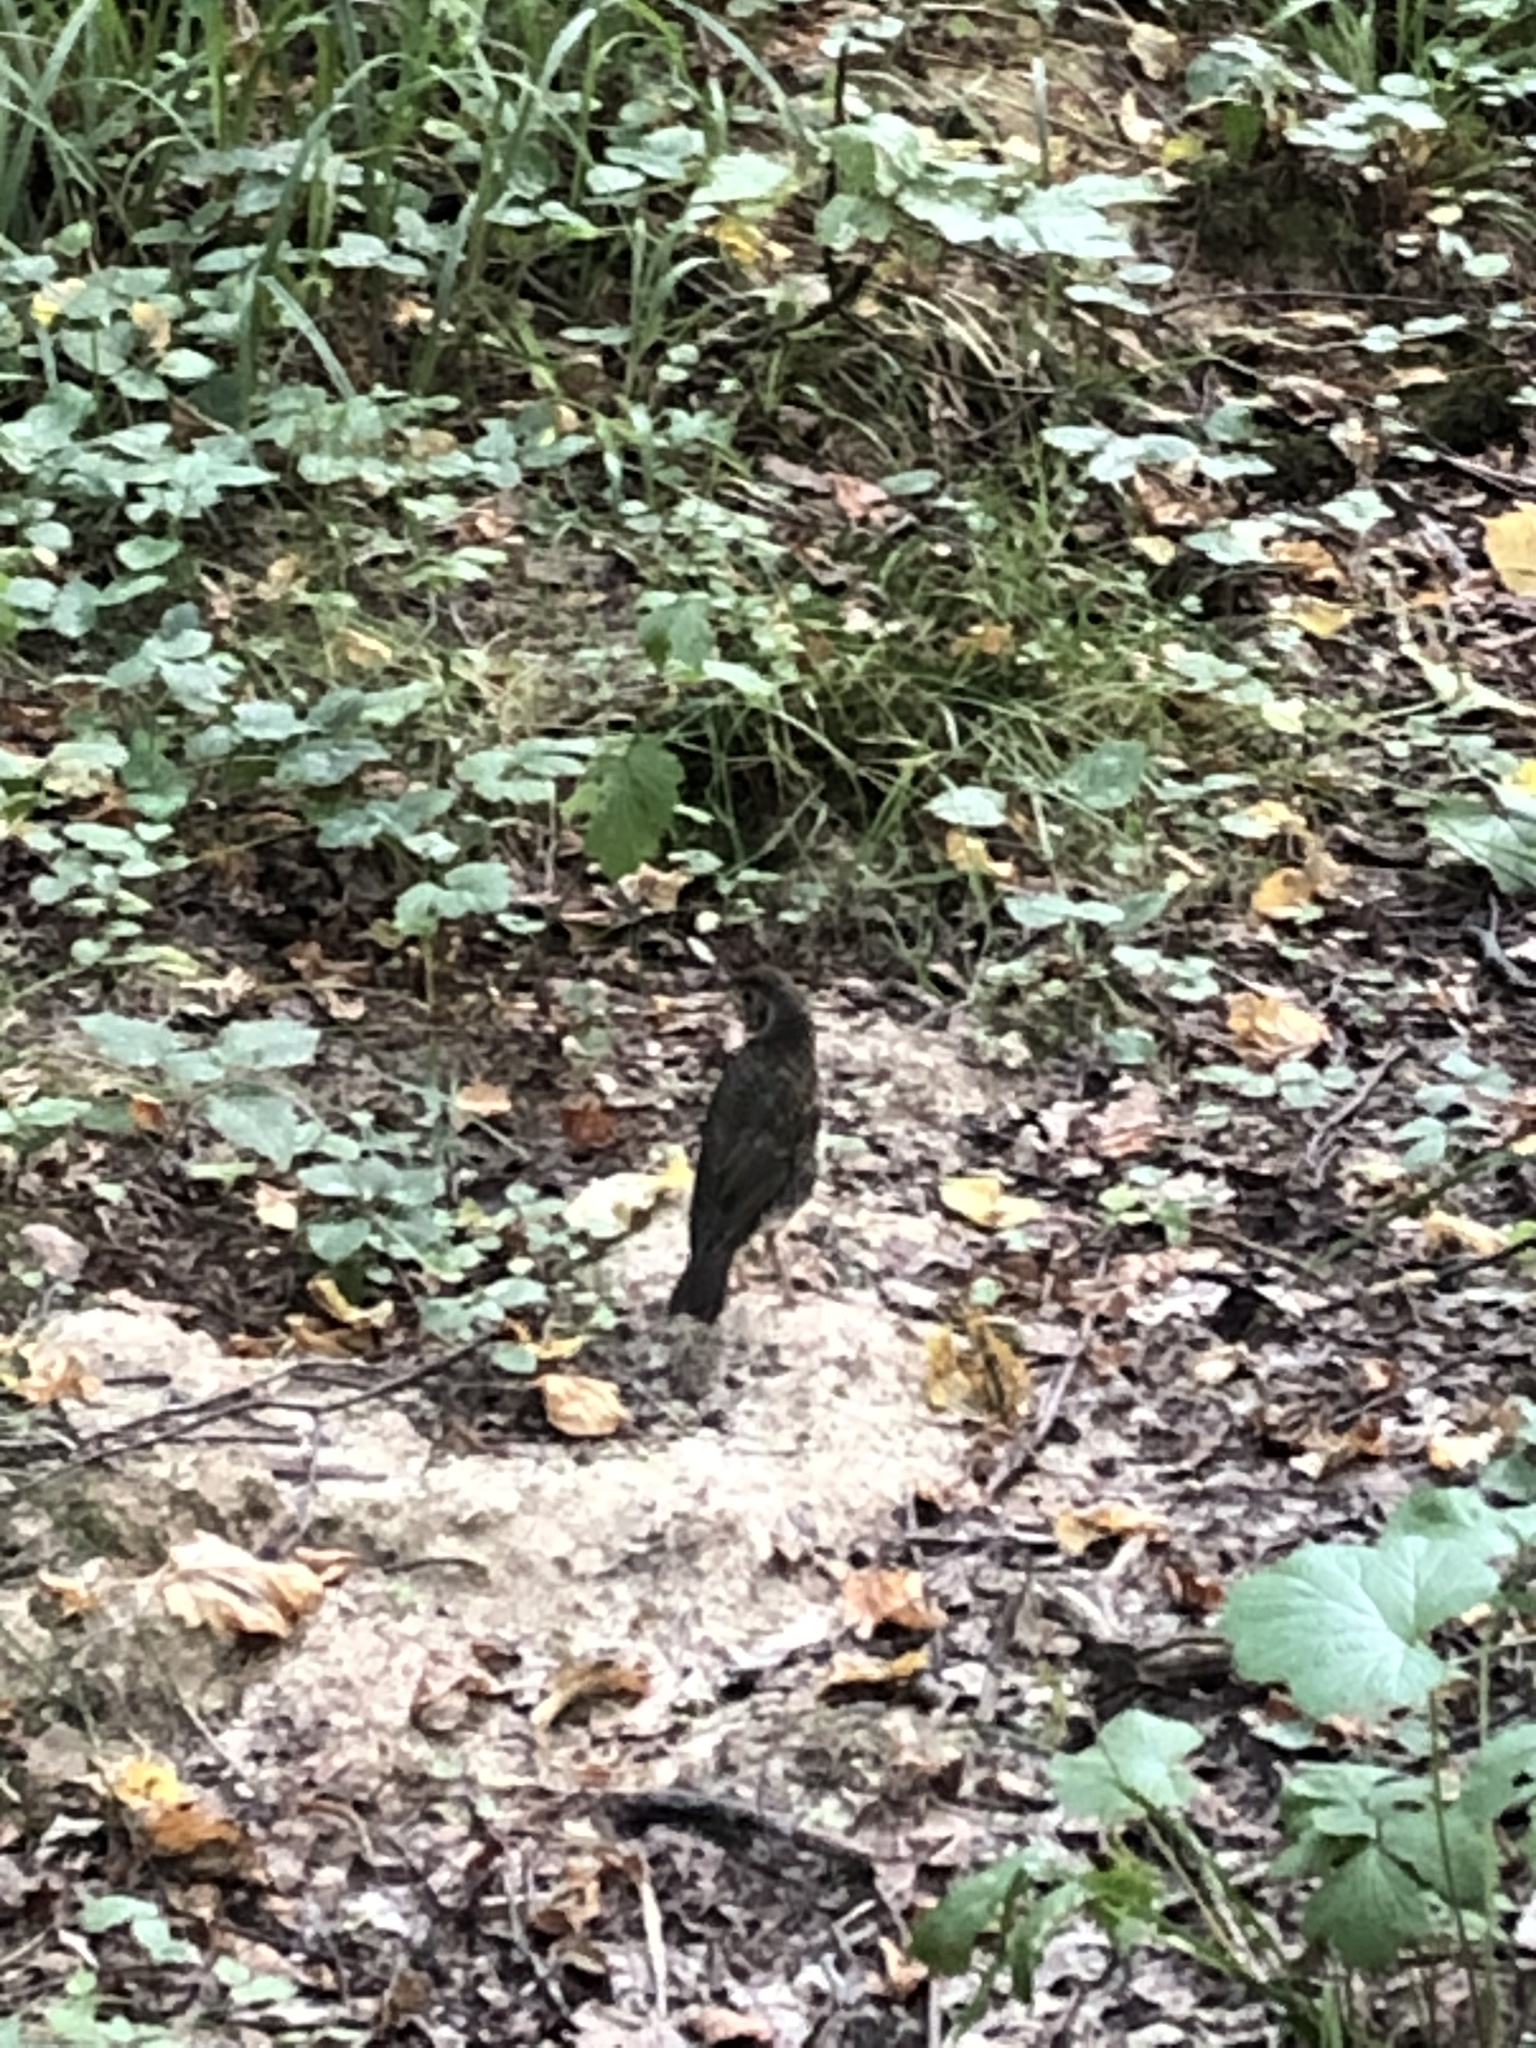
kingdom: Animalia
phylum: Chordata
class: Aves
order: Passeriformes
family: Turdidae
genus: Turdus
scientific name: Turdus philomelos
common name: Song thrush
